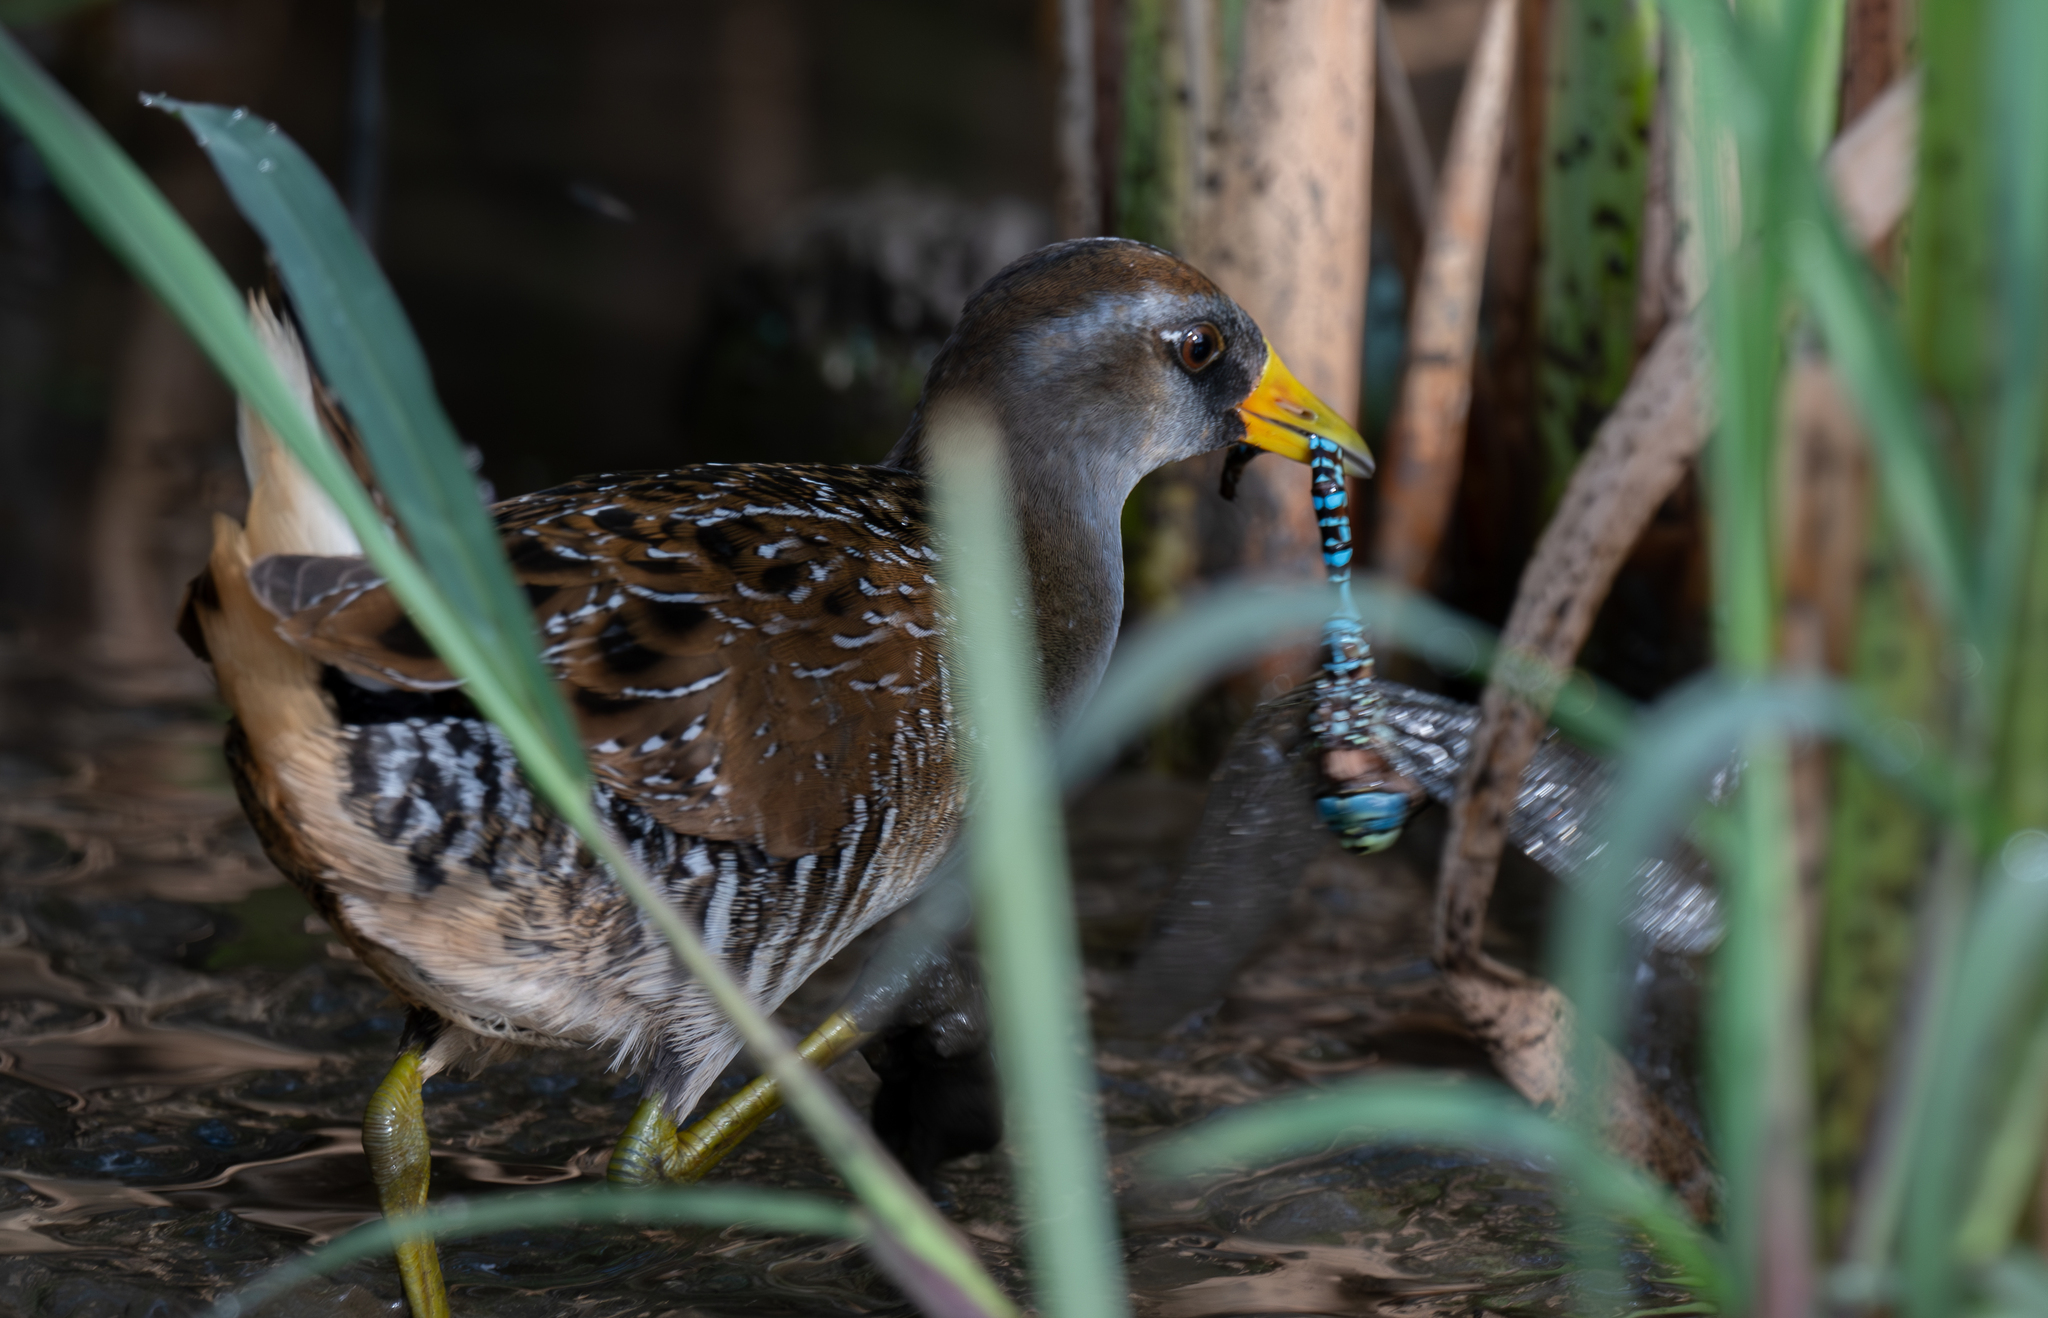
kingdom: Animalia
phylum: Arthropoda
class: Insecta
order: Odonata
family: Aeshnidae
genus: Aeshna
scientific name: Aeshna palmata
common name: Paddle-tailed darner
